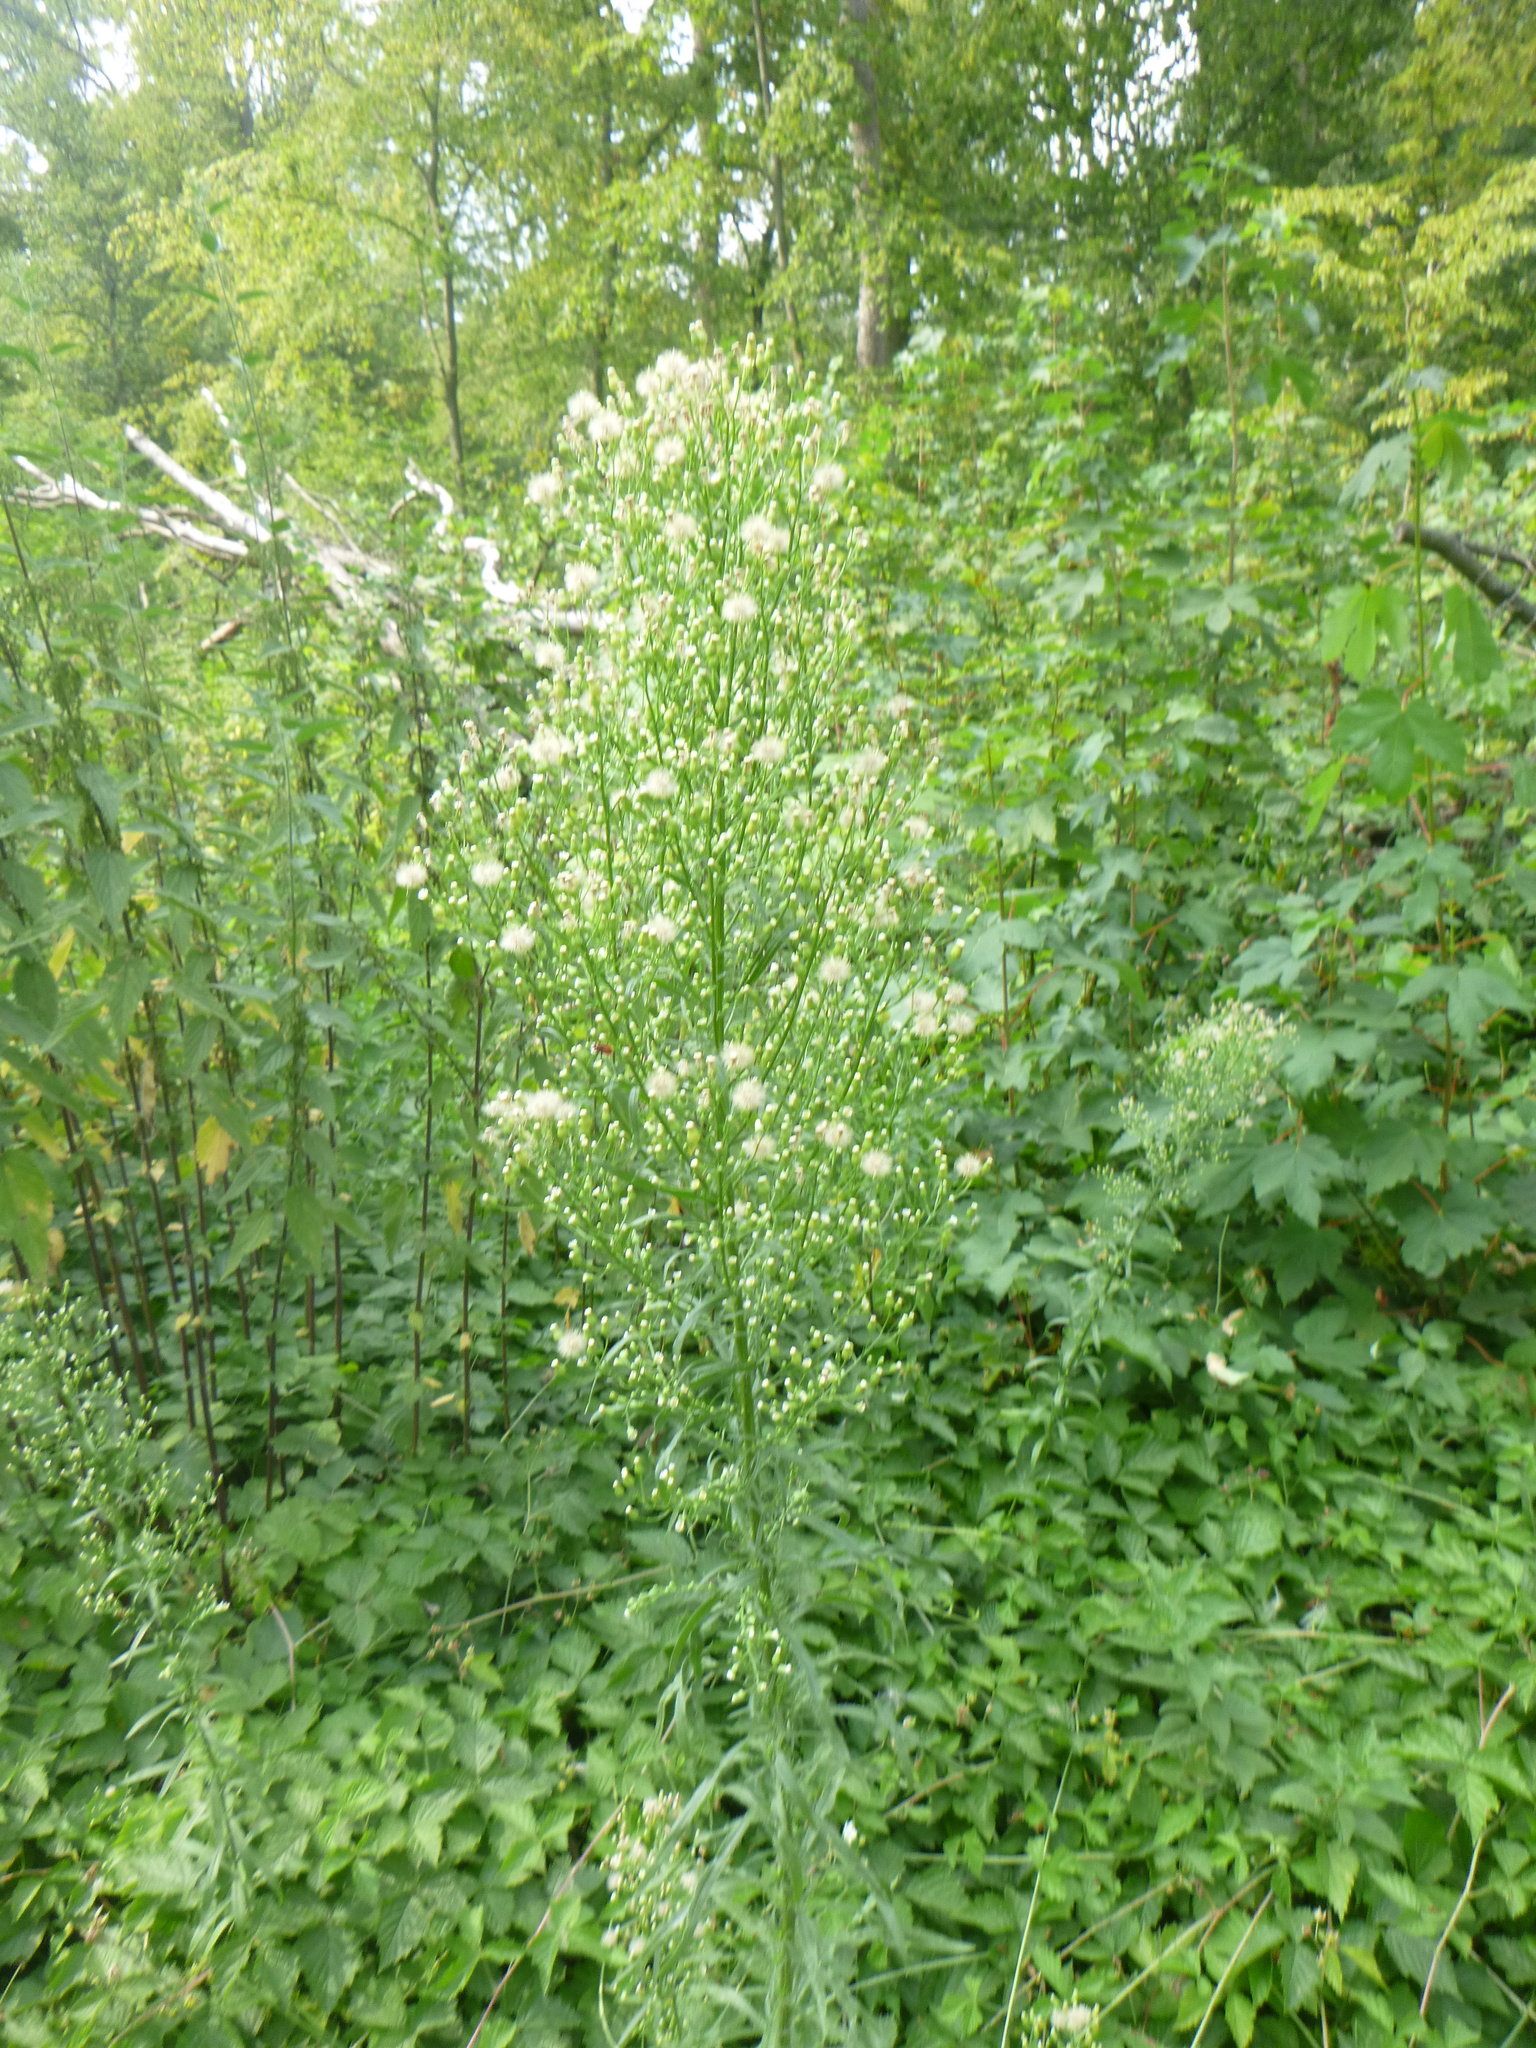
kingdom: Plantae
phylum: Tracheophyta
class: Magnoliopsida
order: Asterales
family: Asteraceae
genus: Erigeron
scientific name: Erigeron canadensis
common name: Canadian fleabane
